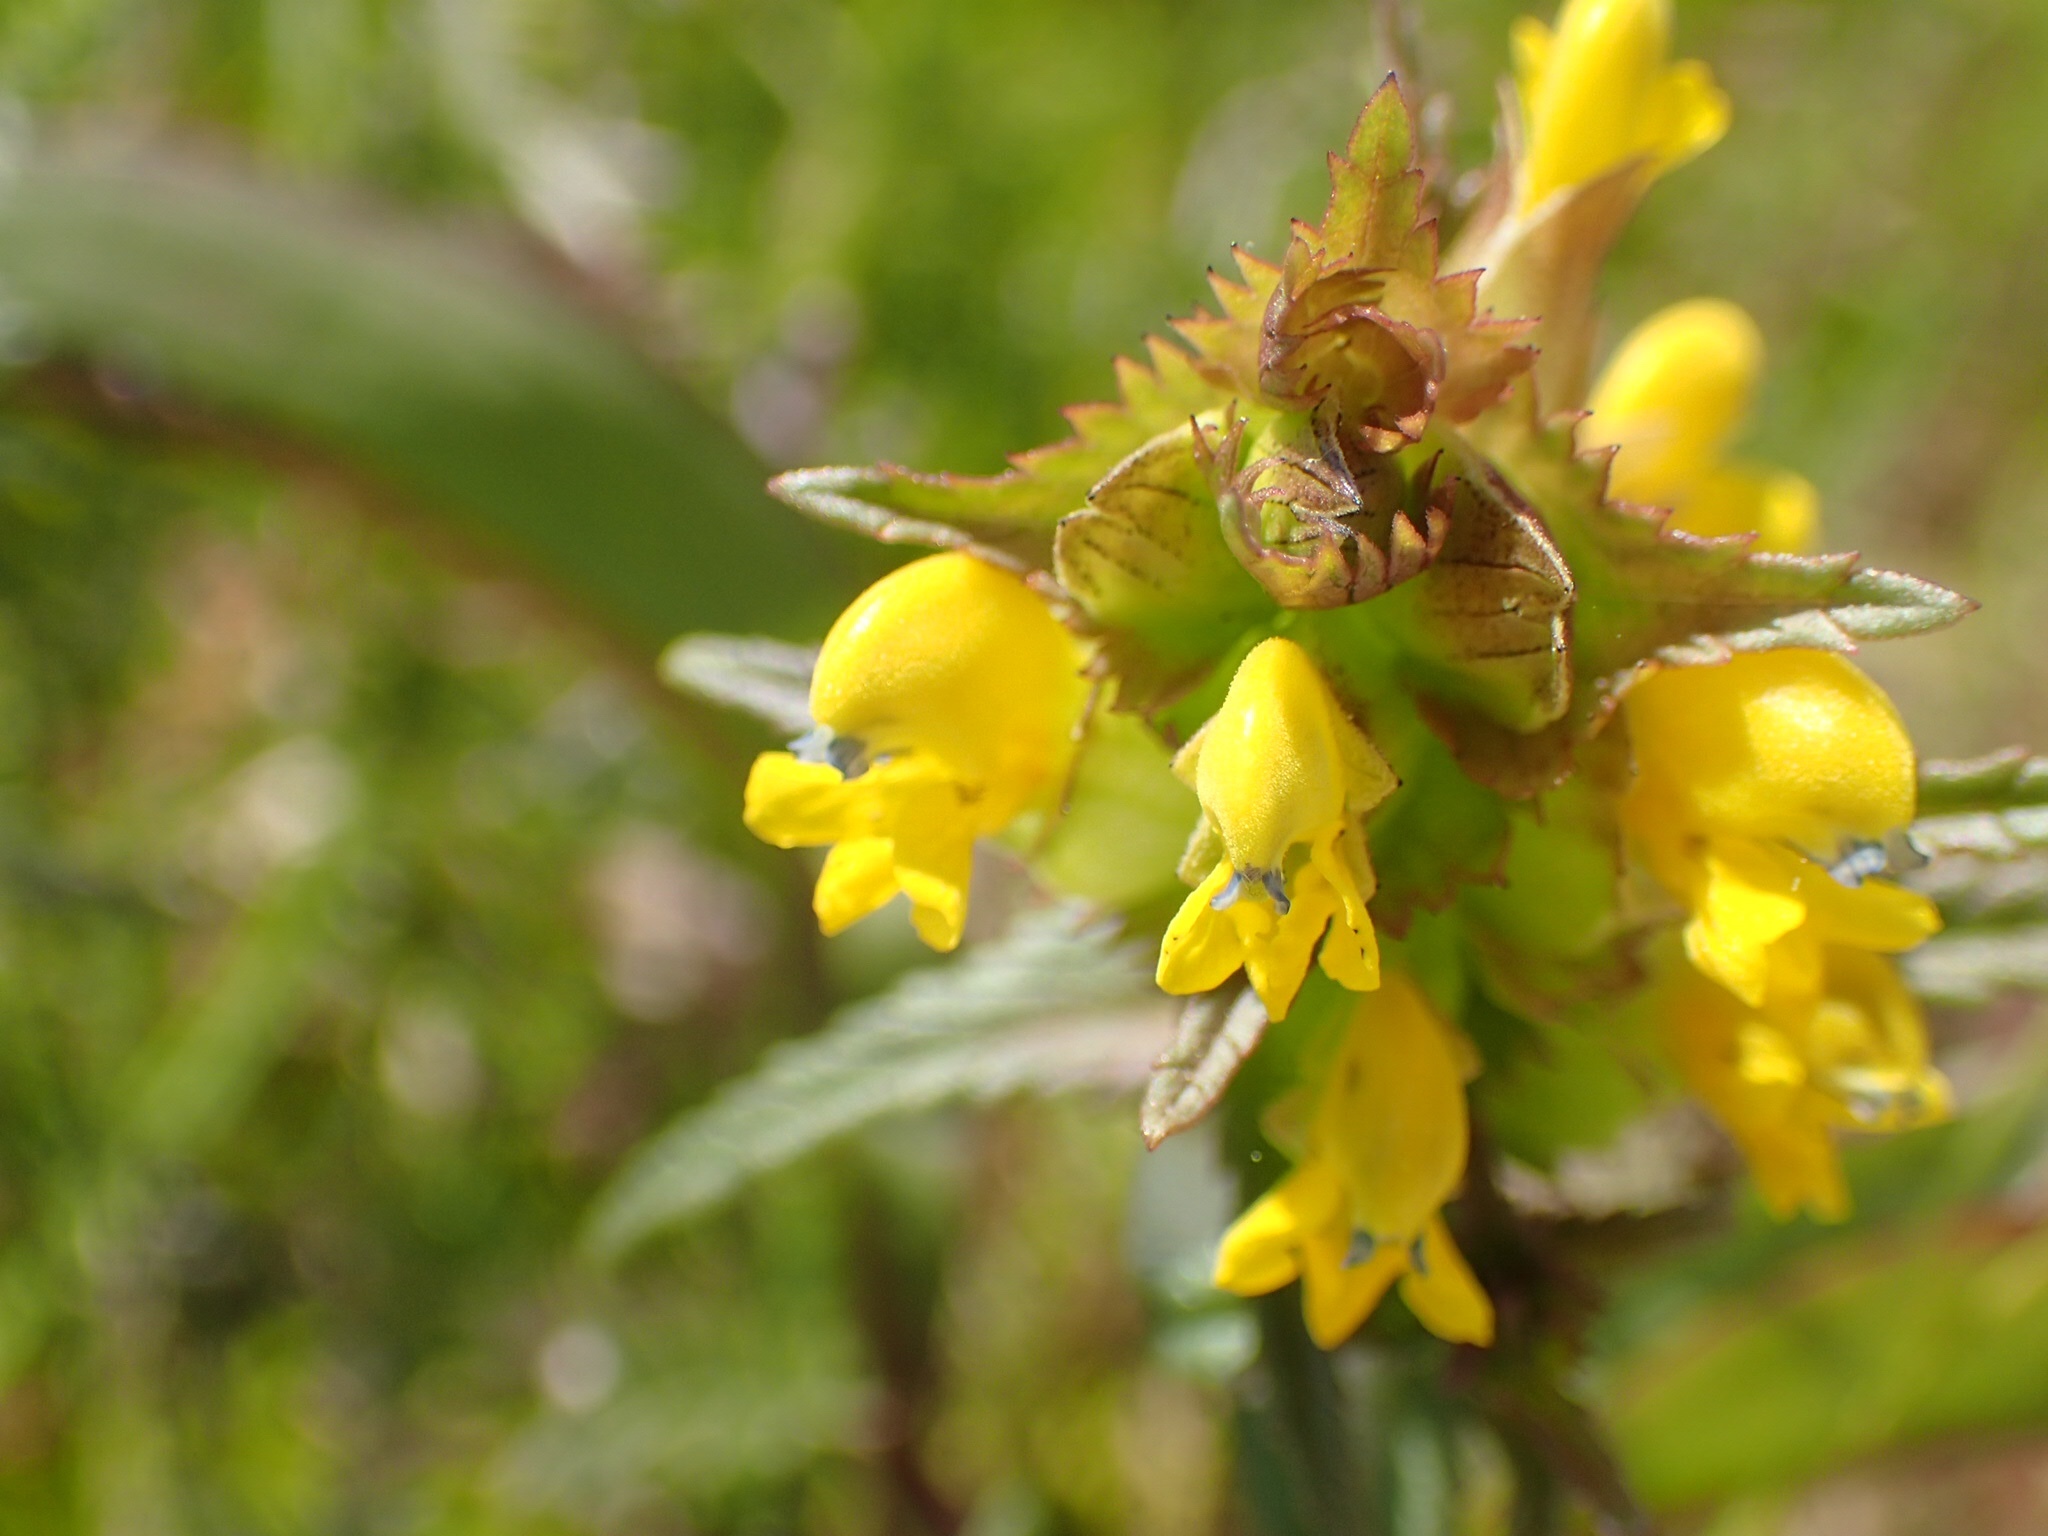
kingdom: Plantae
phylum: Tracheophyta
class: Magnoliopsida
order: Lamiales
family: Orobanchaceae
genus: Rhinanthus
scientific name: Rhinanthus minor
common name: Yellow-rattle
